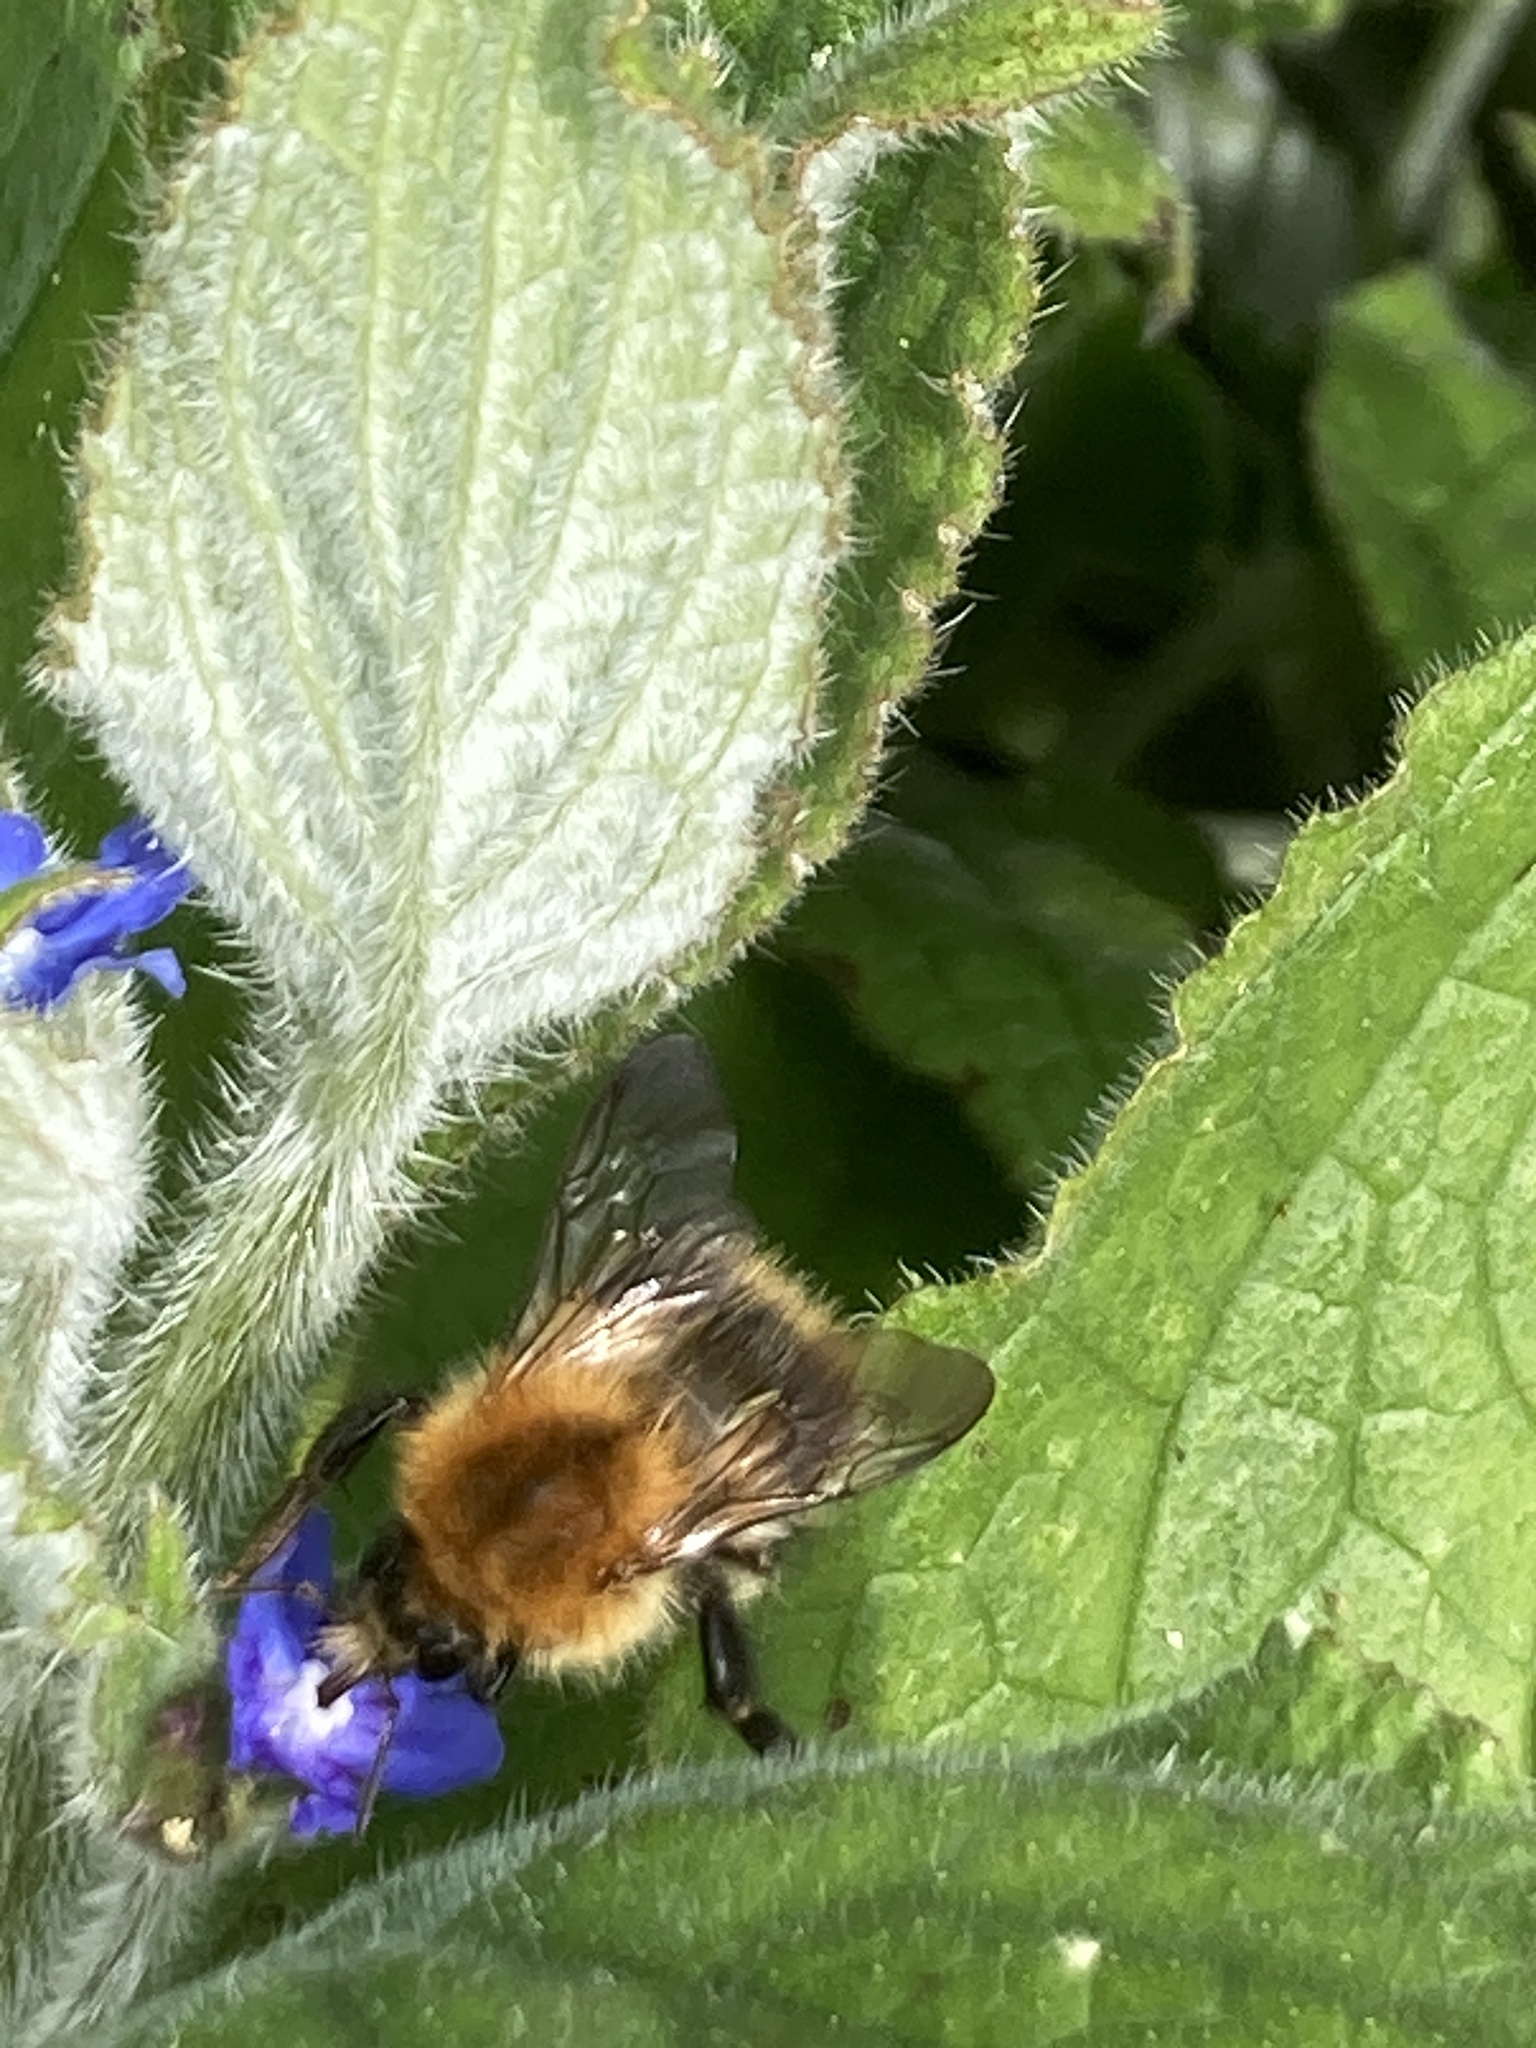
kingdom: Animalia
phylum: Arthropoda
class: Insecta
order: Hymenoptera
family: Apidae
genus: Bombus
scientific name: Bombus pascuorum
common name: Common carder bee
